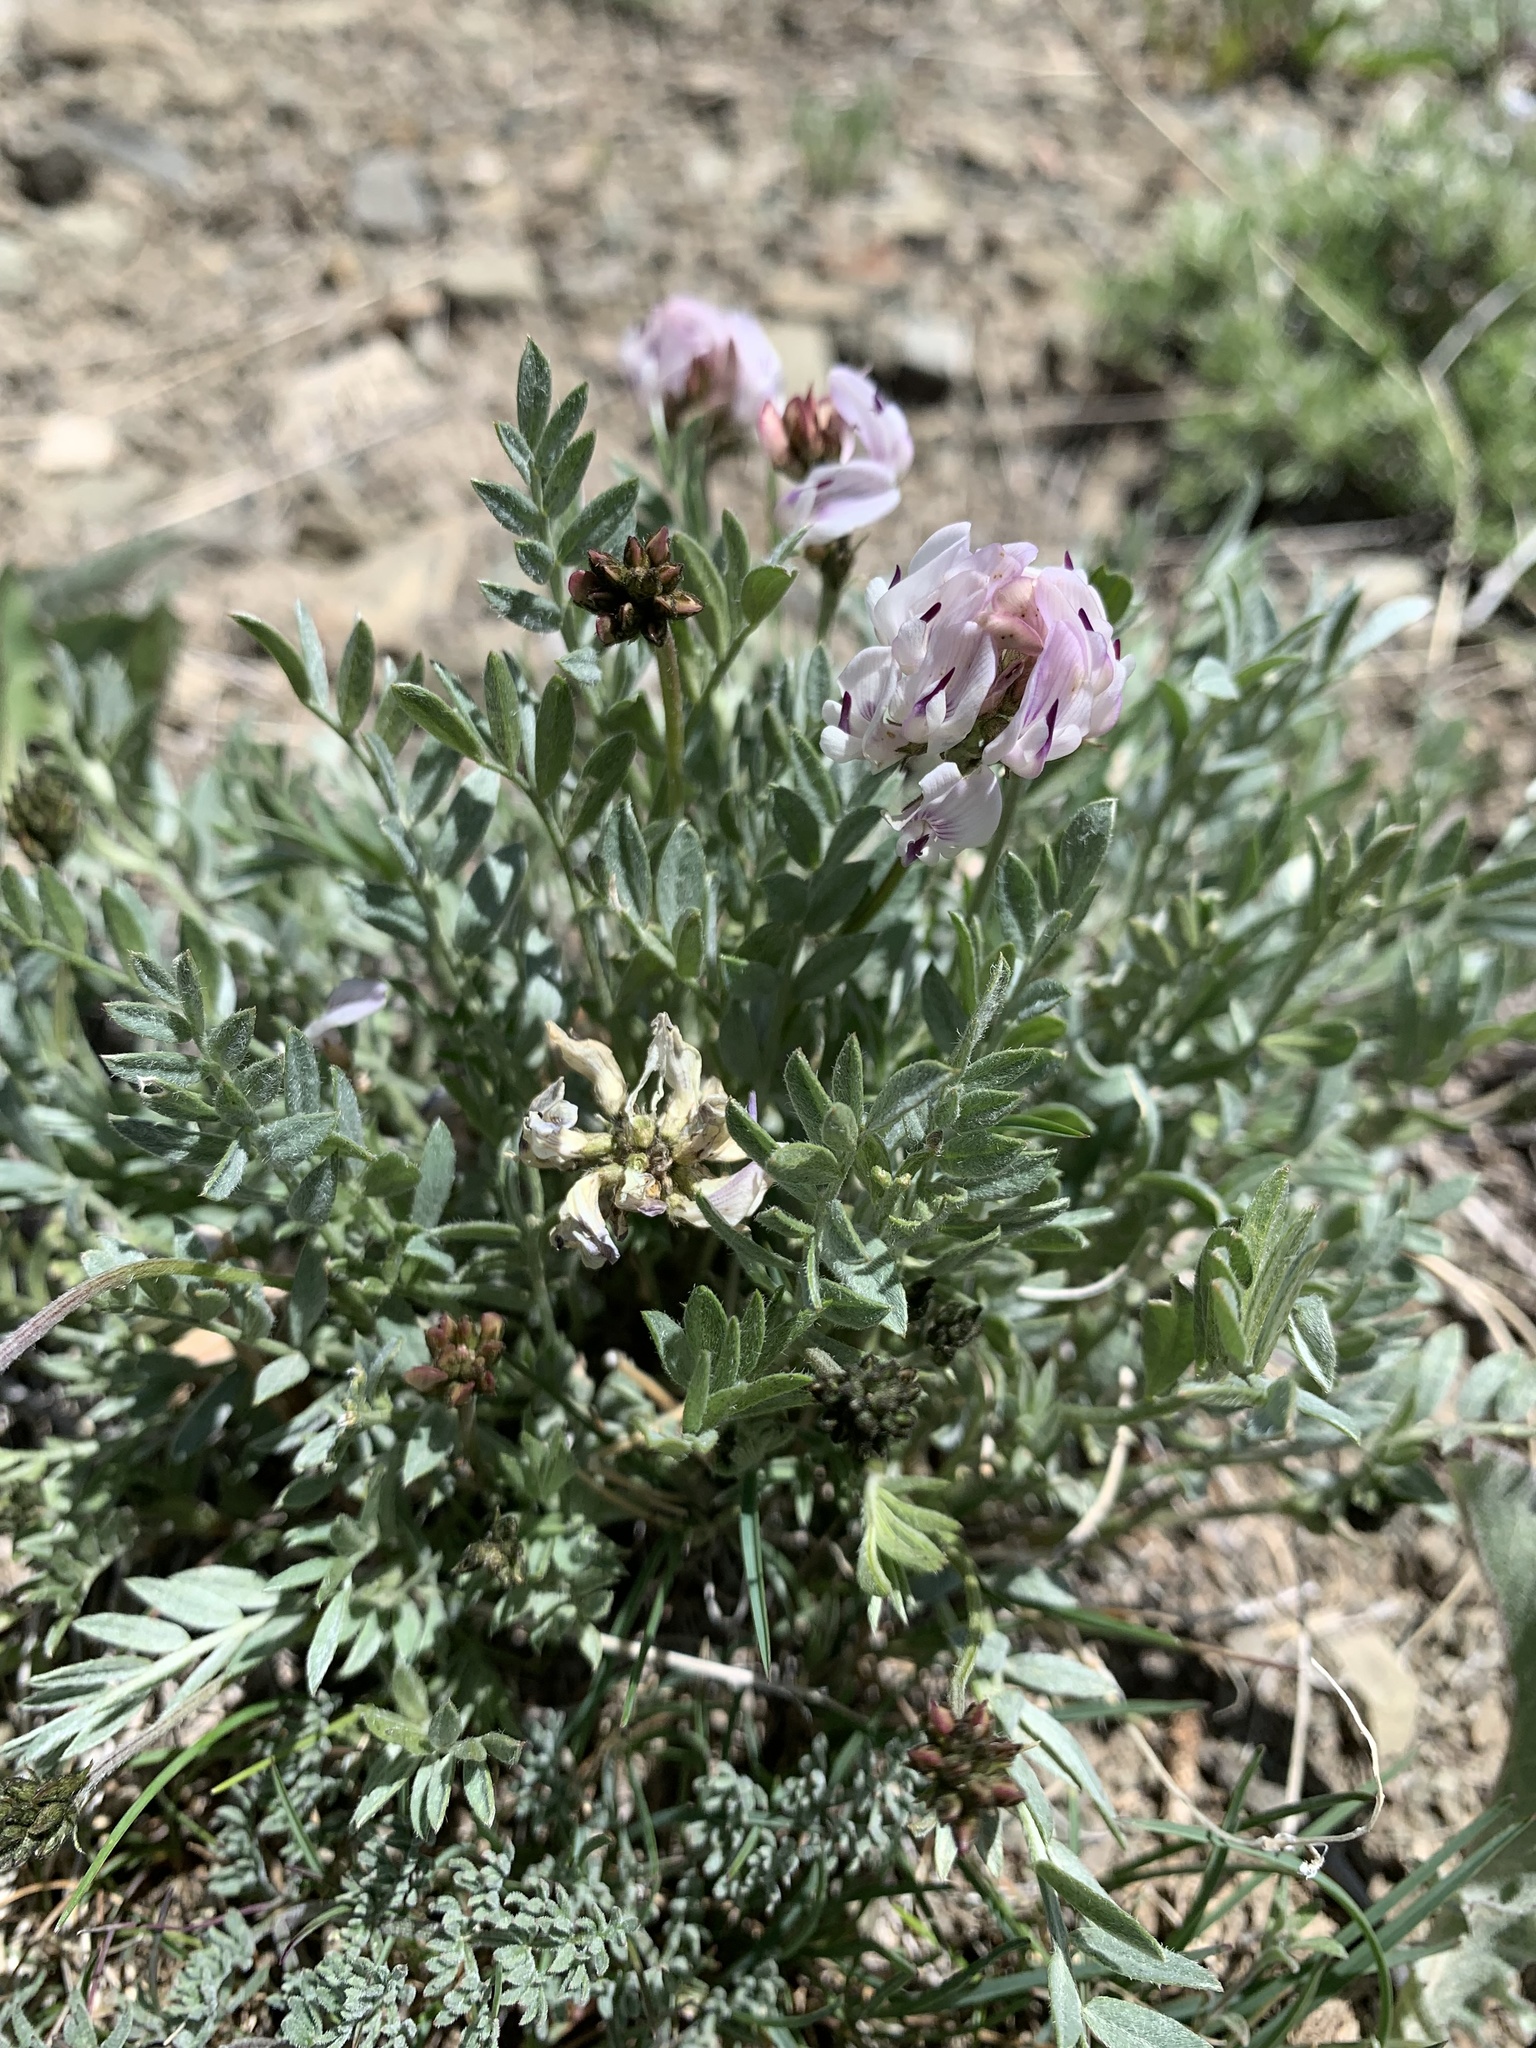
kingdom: Plantae
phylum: Tracheophyta
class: Magnoliopsida
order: Fabales
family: Fabaceae
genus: Astragalus
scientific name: Astragalus miser
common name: Timber milkvetch
